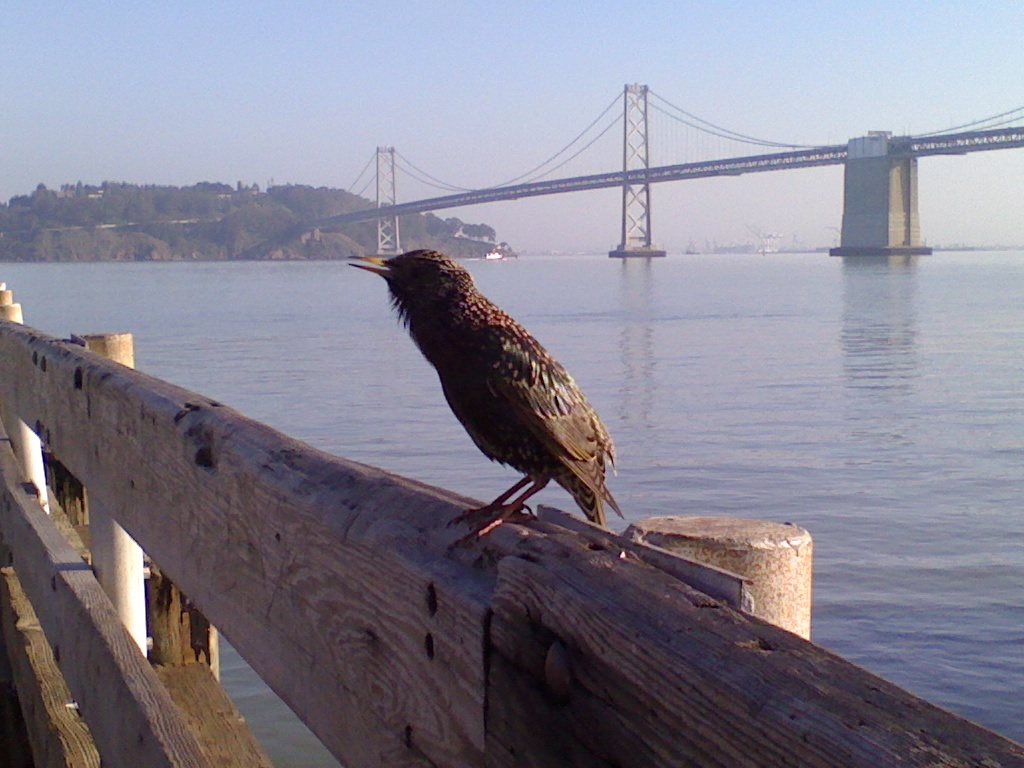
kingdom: Animalia
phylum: Chordata
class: Aves
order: Passeriformes
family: Sturnidae
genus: Sturnus
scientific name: Sturnus vulgaris
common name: Common starling
